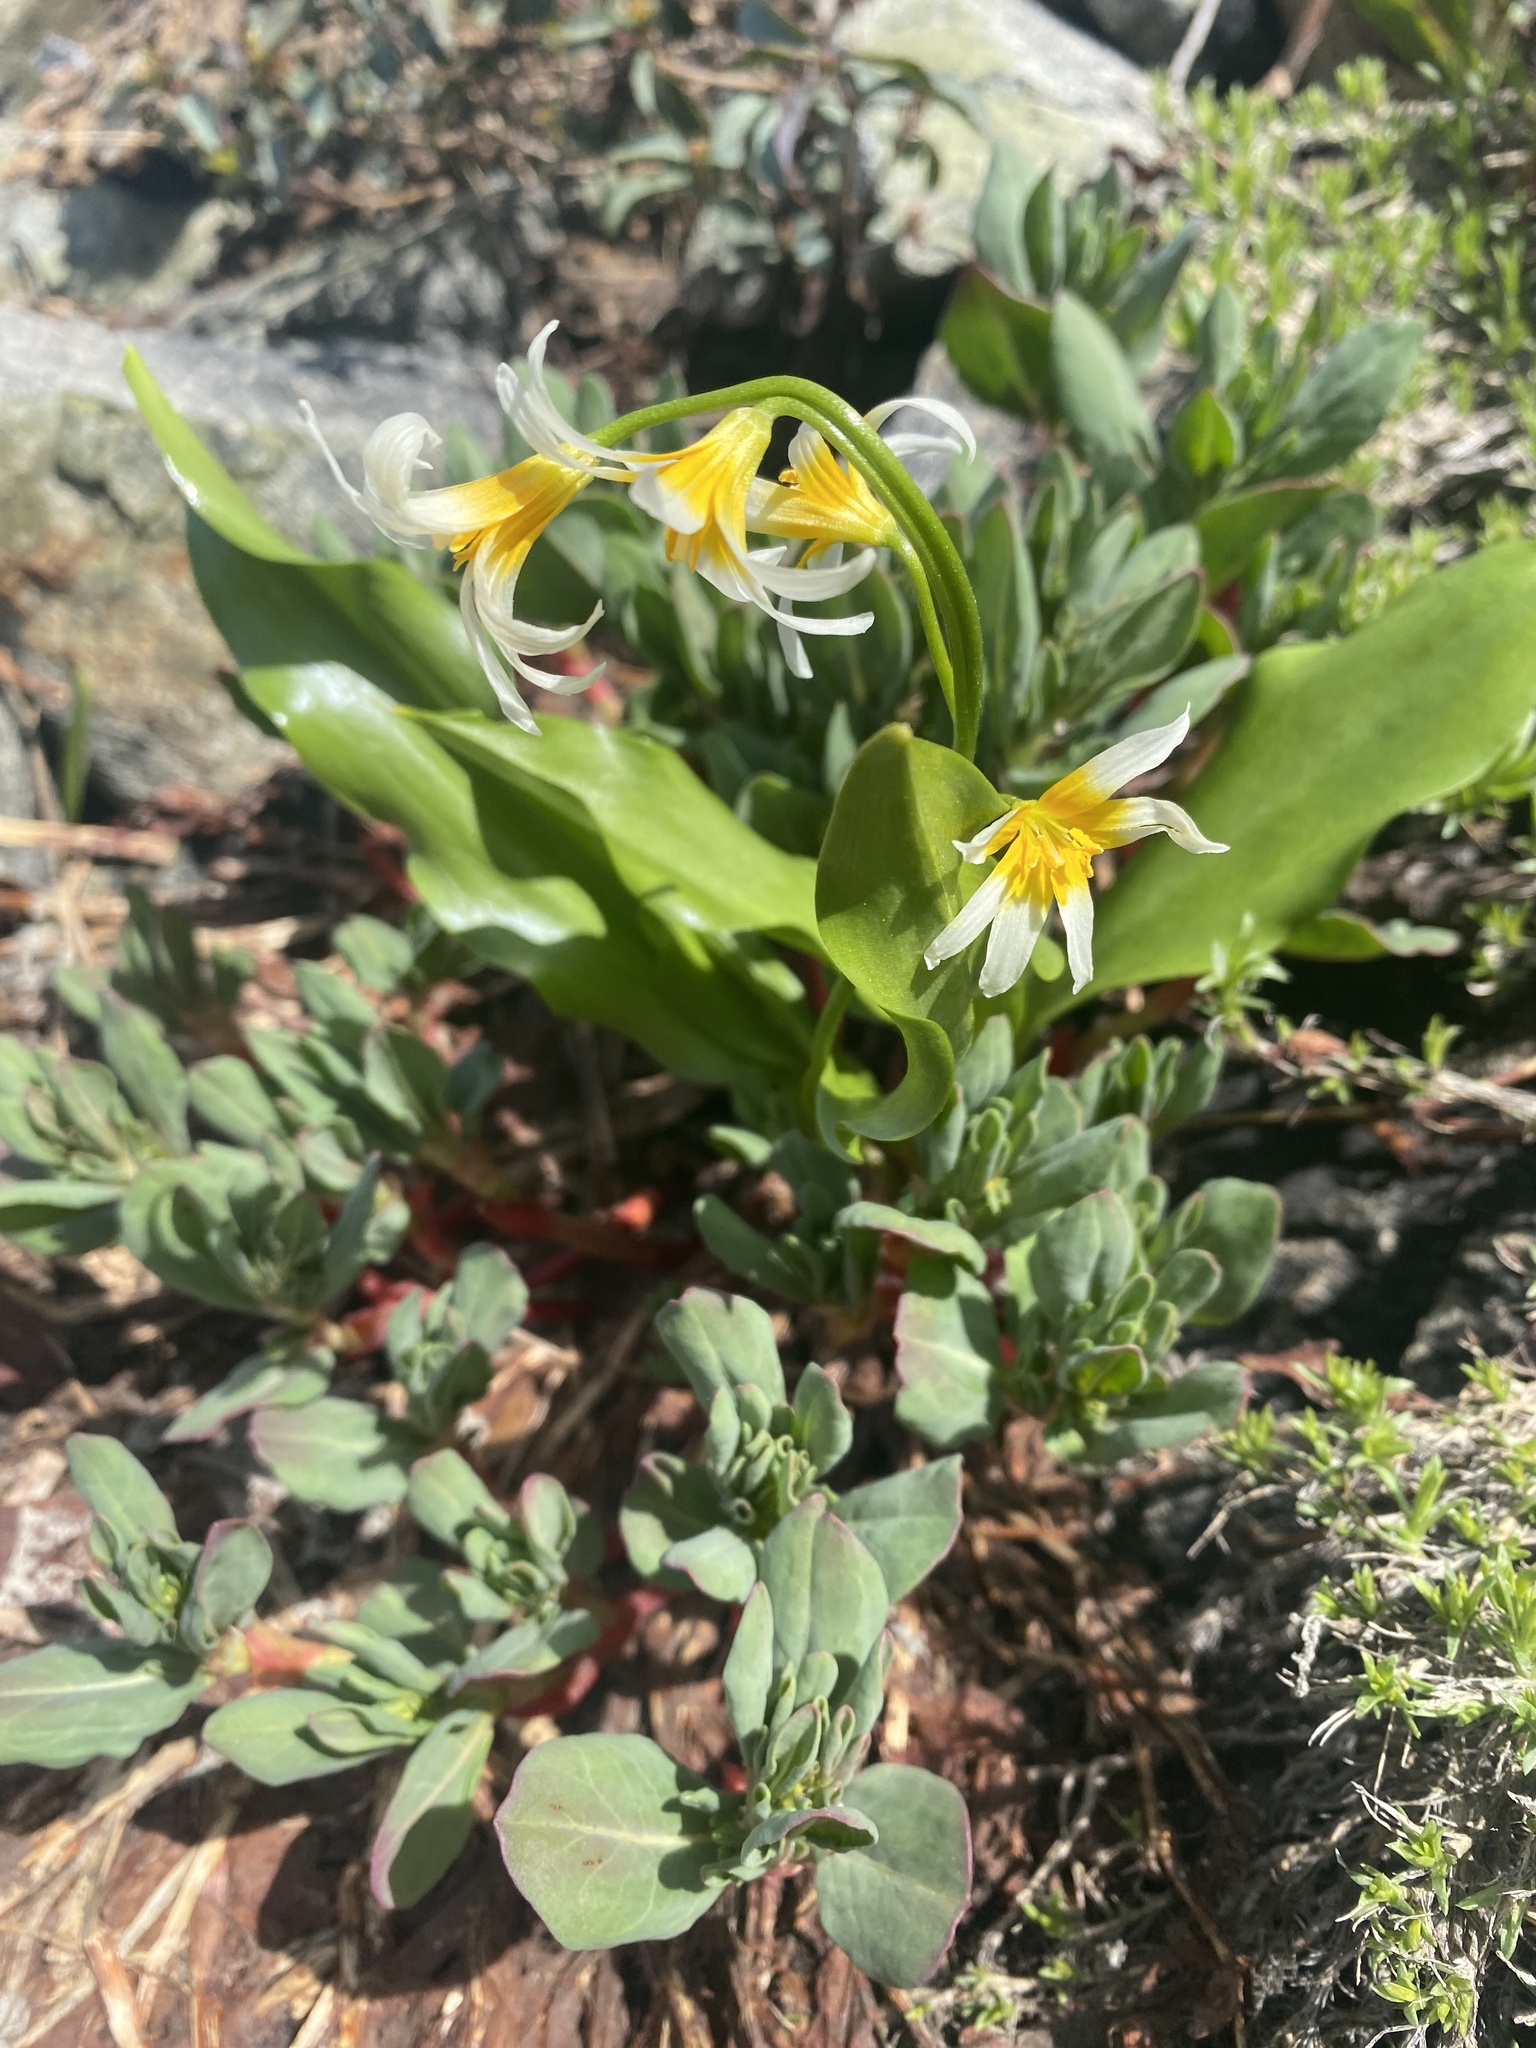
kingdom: Plantae
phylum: Tracheophyta
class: Liliopsida
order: Liliales
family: Liliaceae
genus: Erythronium
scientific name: Erythronium purpurascens
